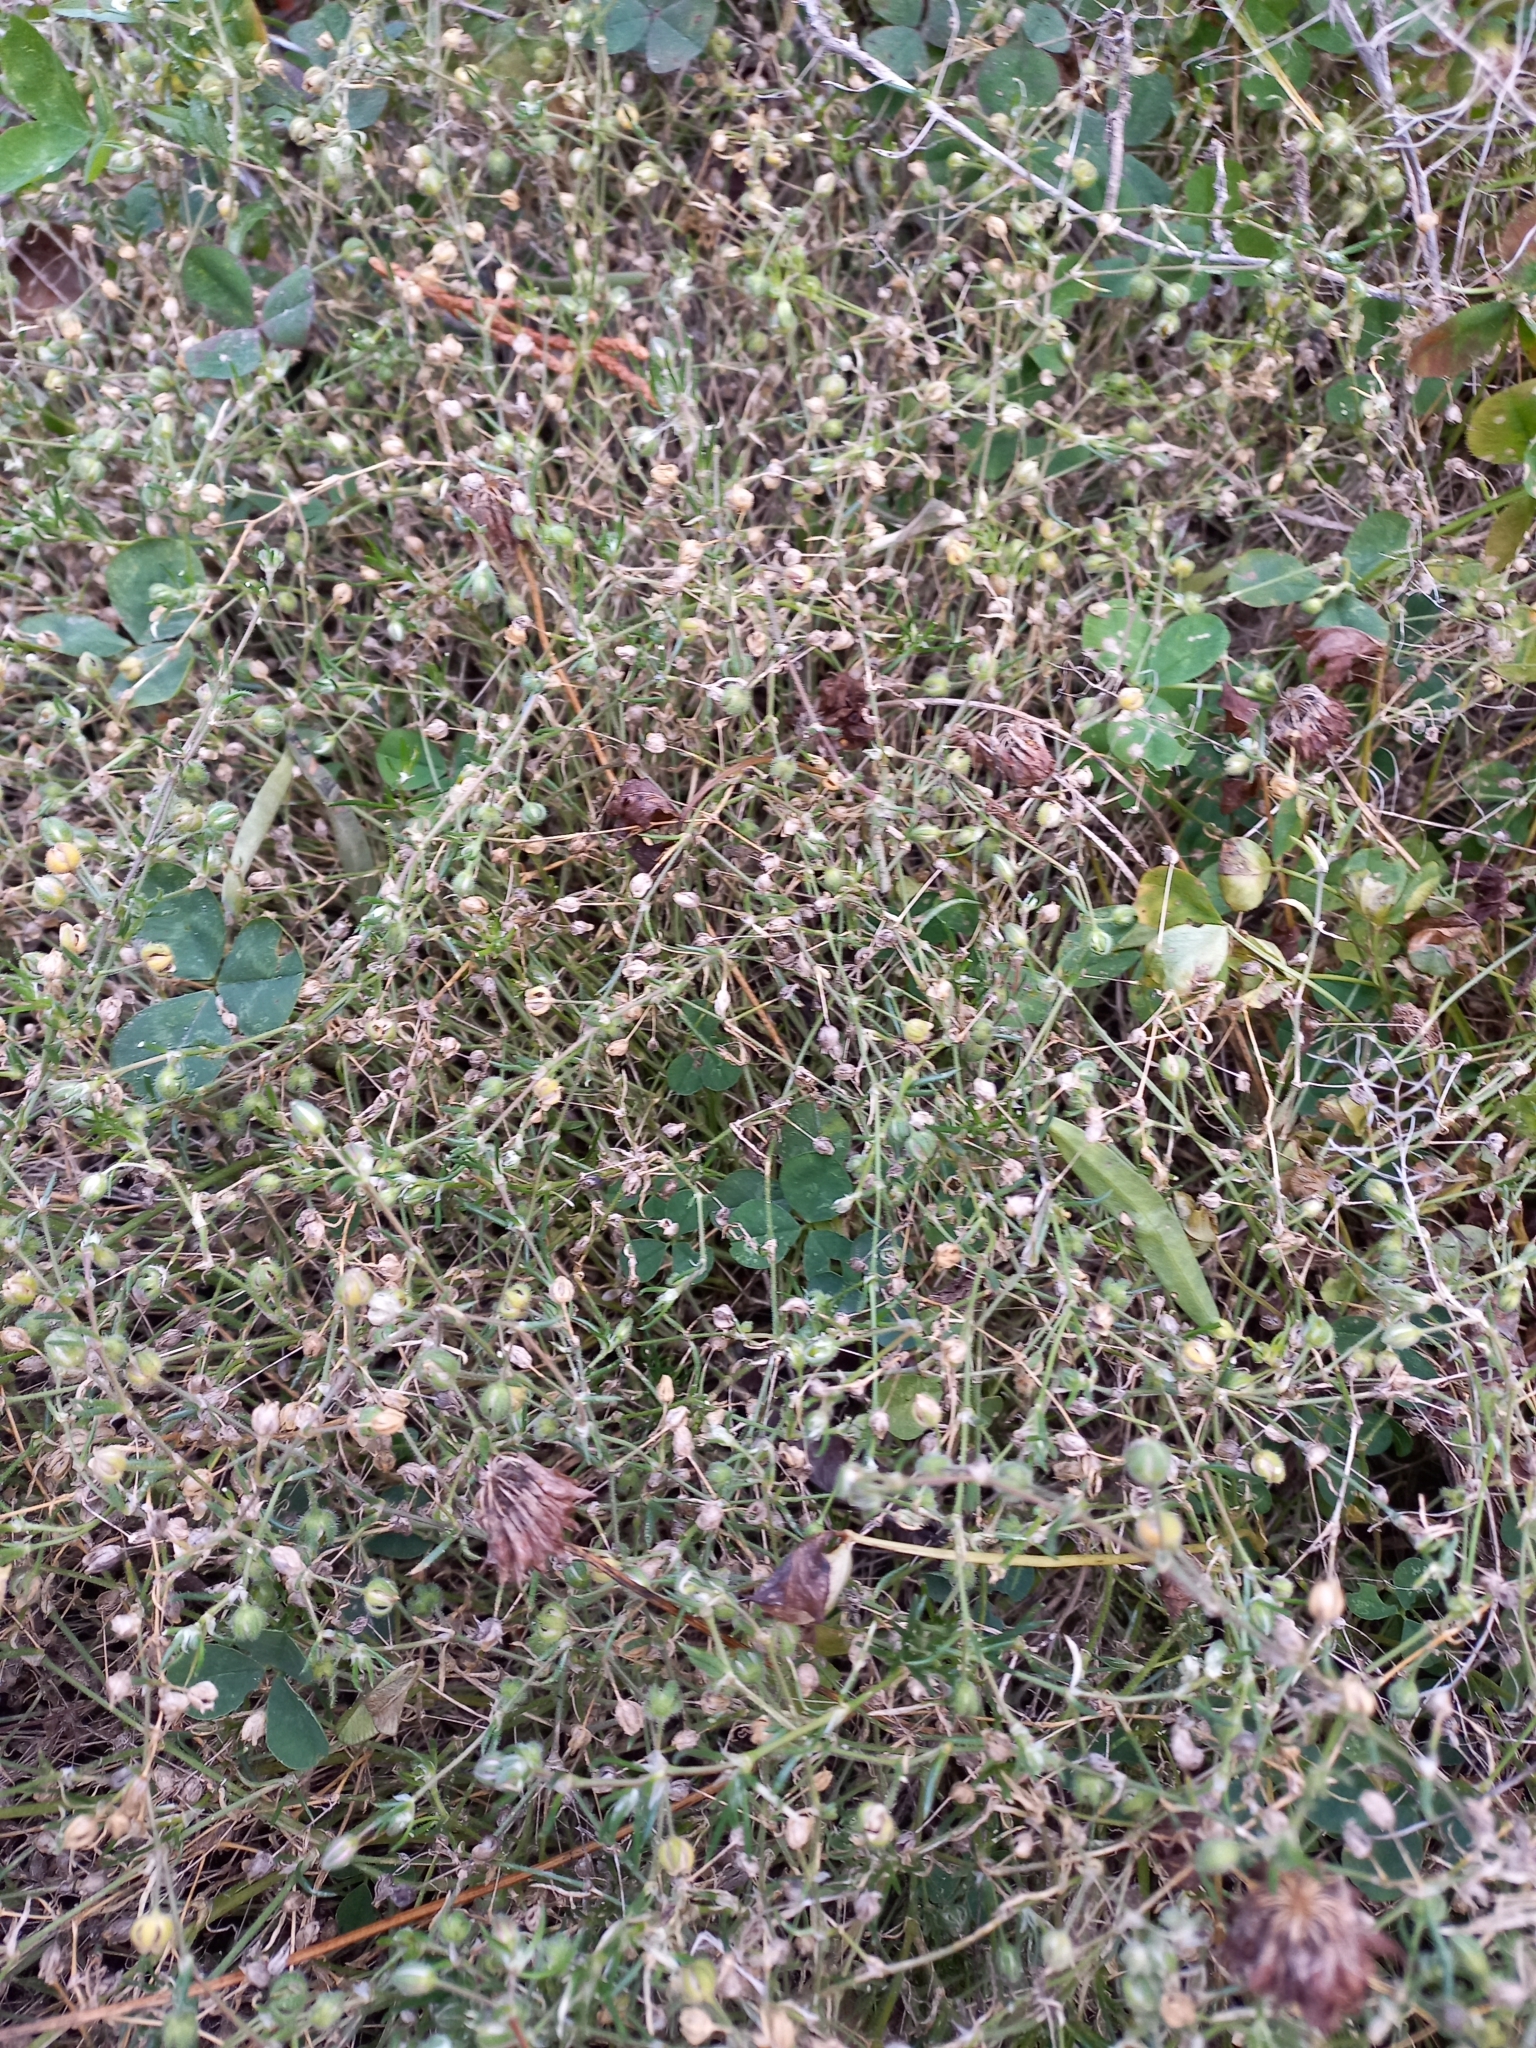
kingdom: Plantae
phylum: Tracheophyta
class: Magnoliopsida
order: Caryophyllales
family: Caryophyllaceae
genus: Spergula
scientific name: Spergula arvensis
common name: Corn spurrey
